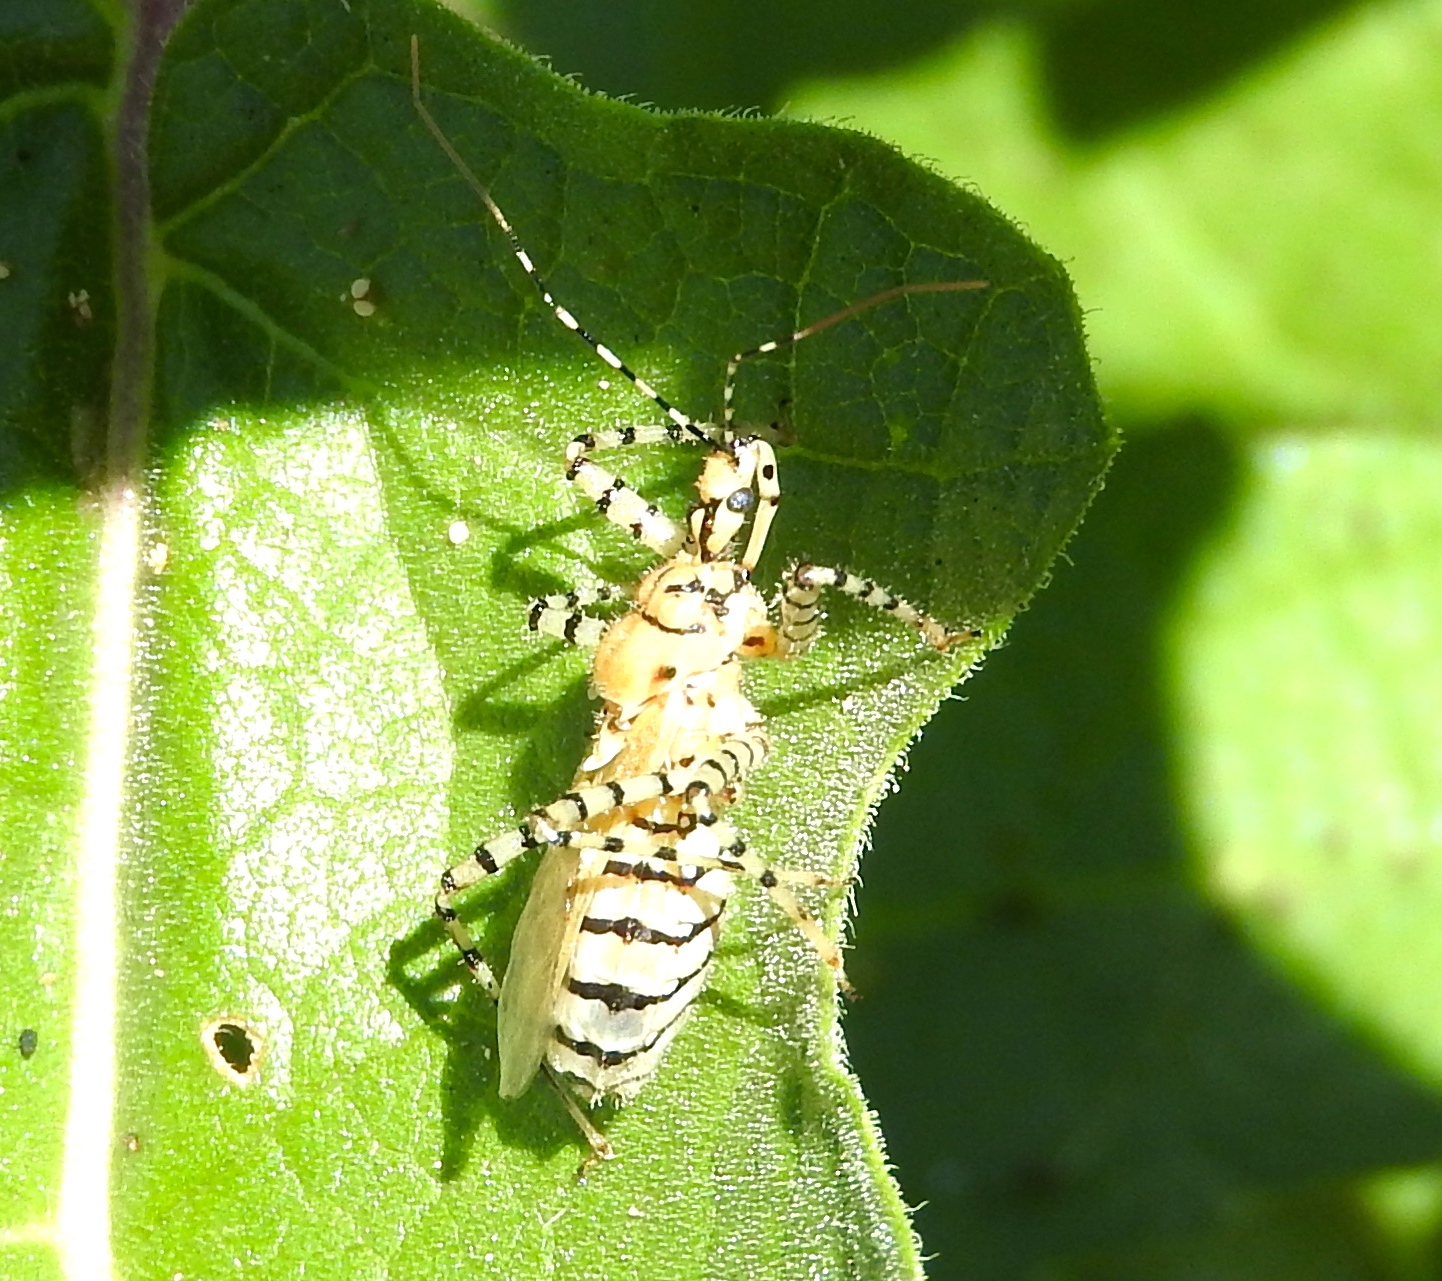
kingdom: Animalia
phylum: Arthropoda
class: Insecta
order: Hemiptera
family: Reduviidae
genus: Pselliopus
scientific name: Pselliopus
